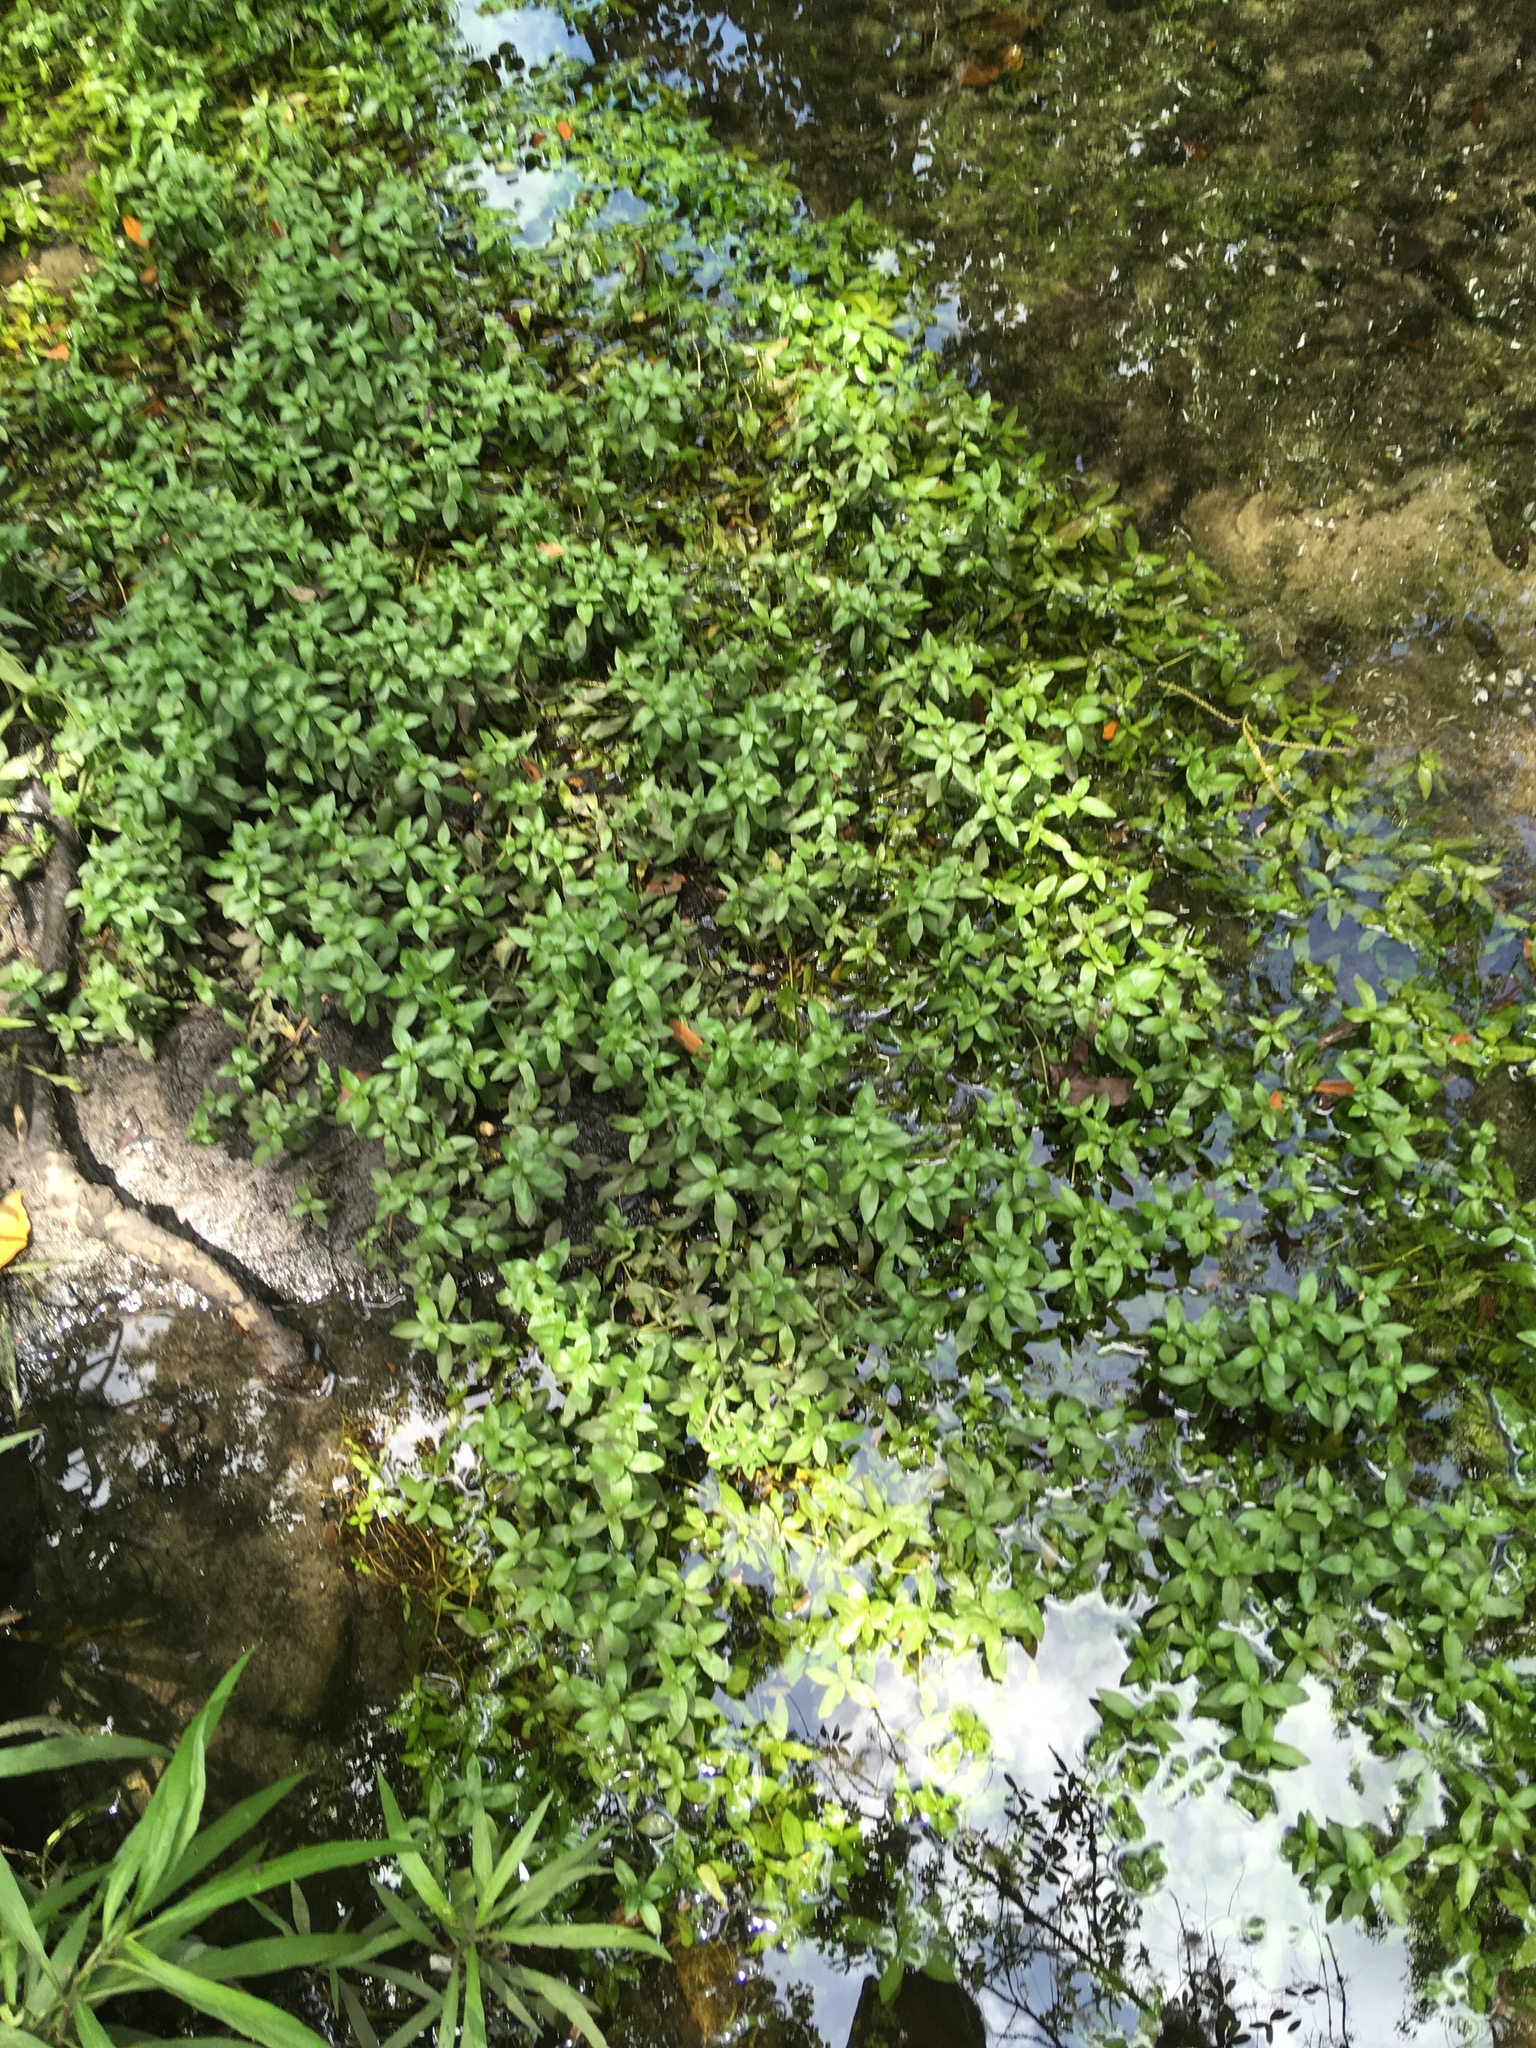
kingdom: Plantae
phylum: Tracheophyta
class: Magnoliopsida
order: Lamiales
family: Acanthaceae
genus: Hygrophila
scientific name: Hygrophila polysperma
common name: Indian swampweed
